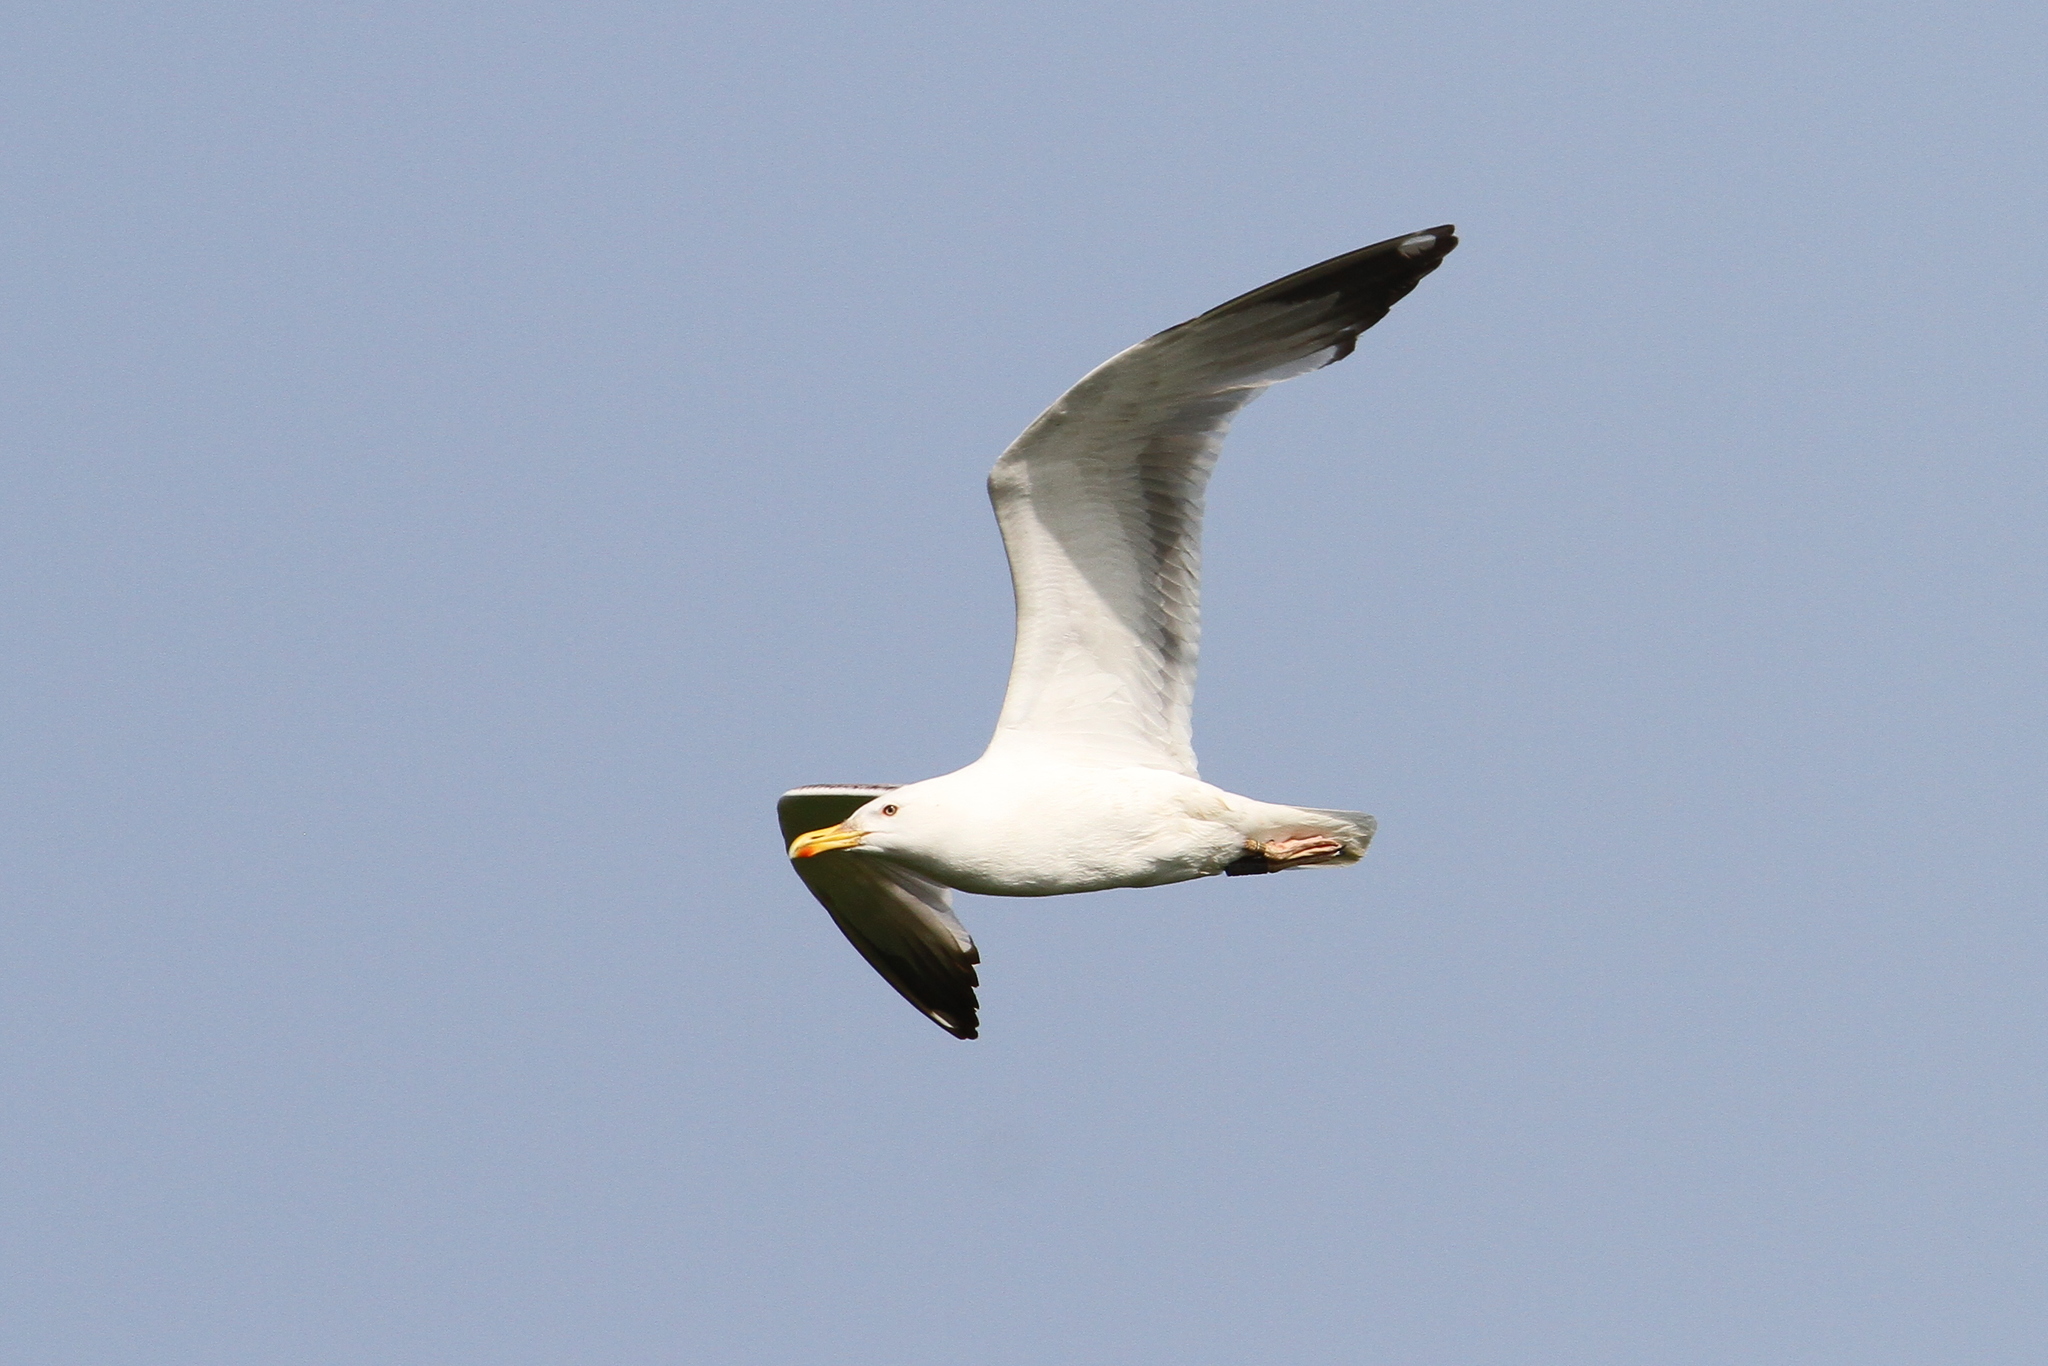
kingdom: Animalia
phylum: Chordata
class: Aves
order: Charadriiformes
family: Laridae
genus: Larus
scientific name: Larus cachinnans
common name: Caspian gull
